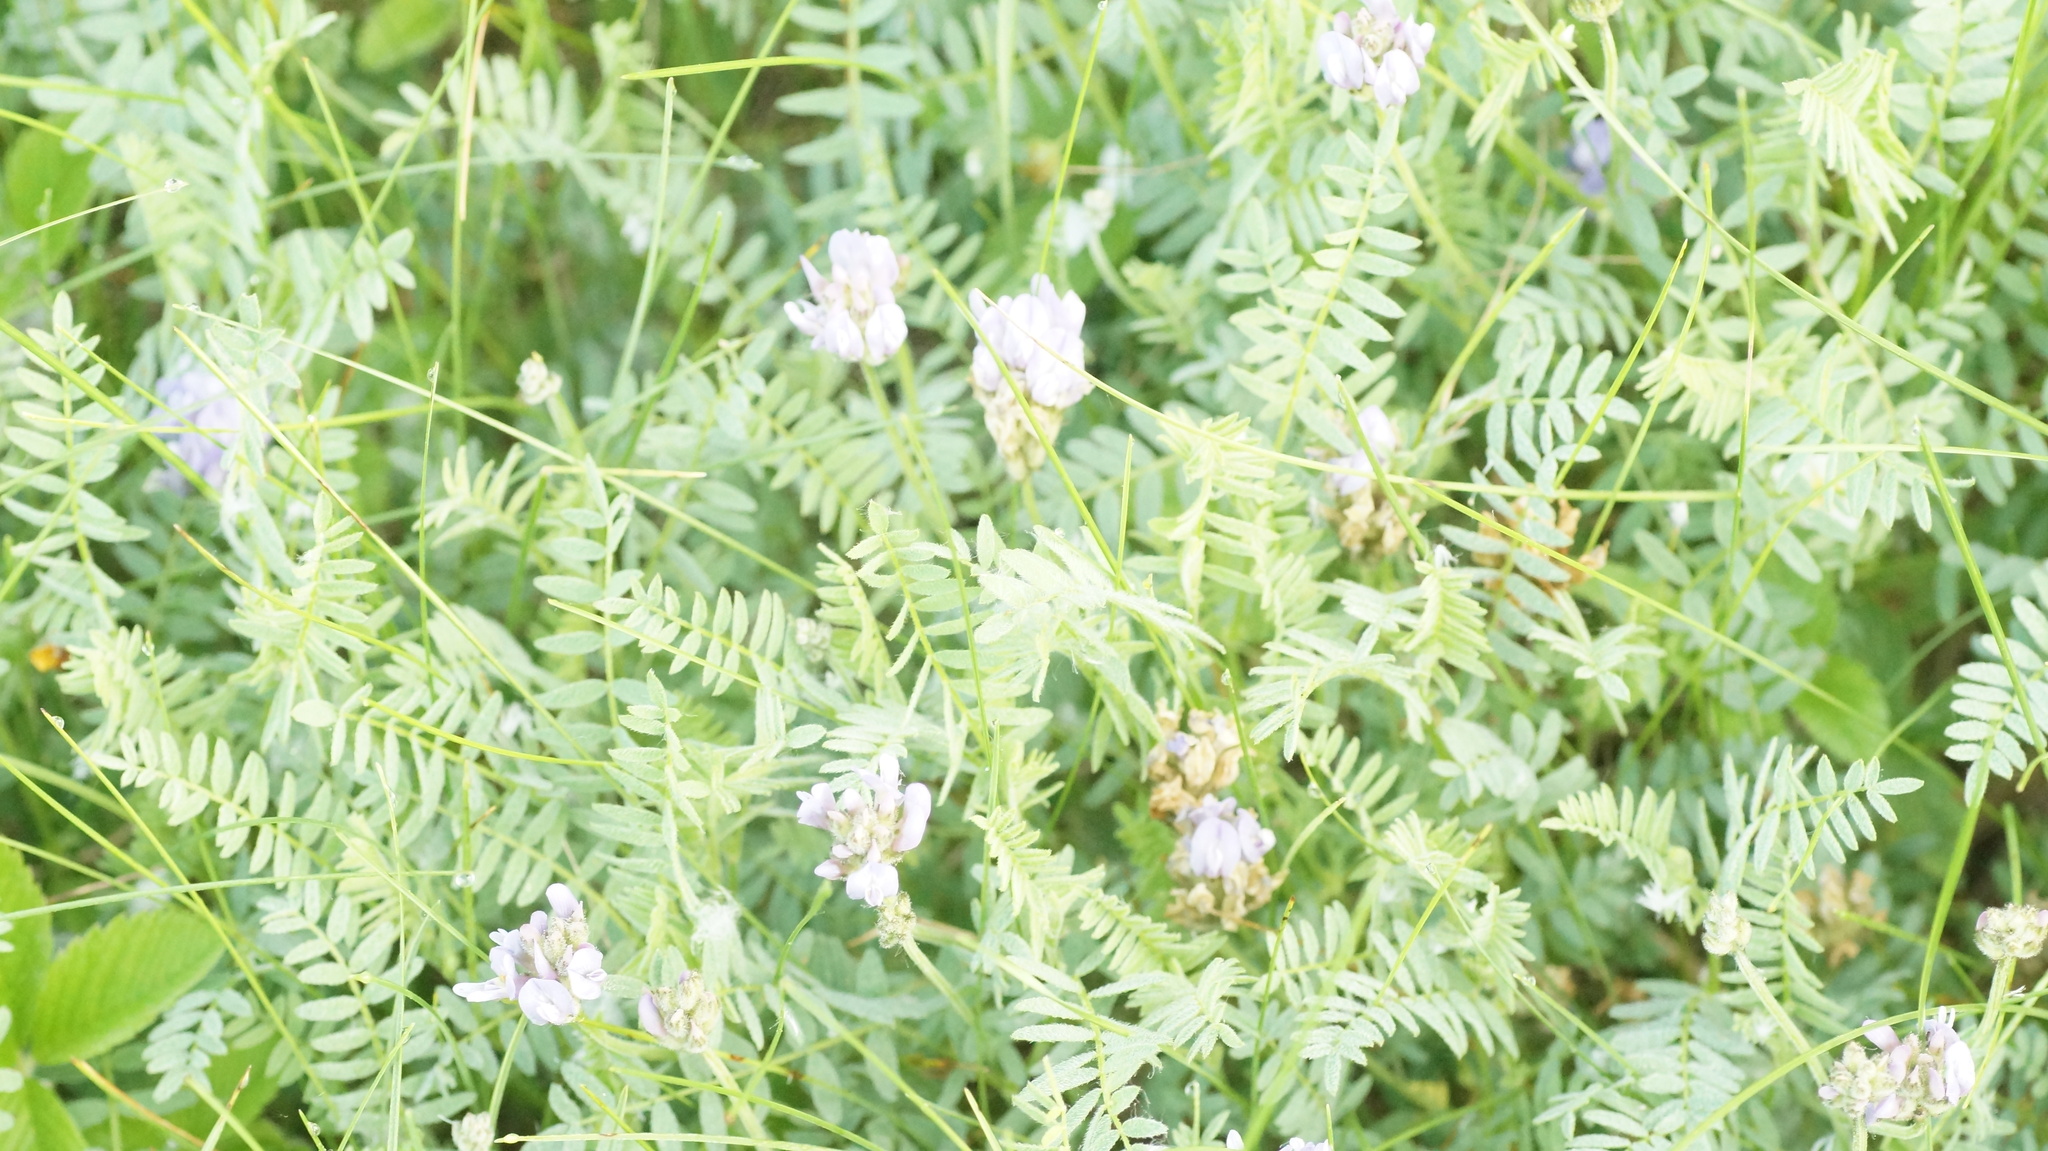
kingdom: Plantae
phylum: Tracheophyta
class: Magnoliopsida
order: Fabales
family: Fabaceae
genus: Astragalus
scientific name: Astragalus danicus
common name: Purple milk-vetch
